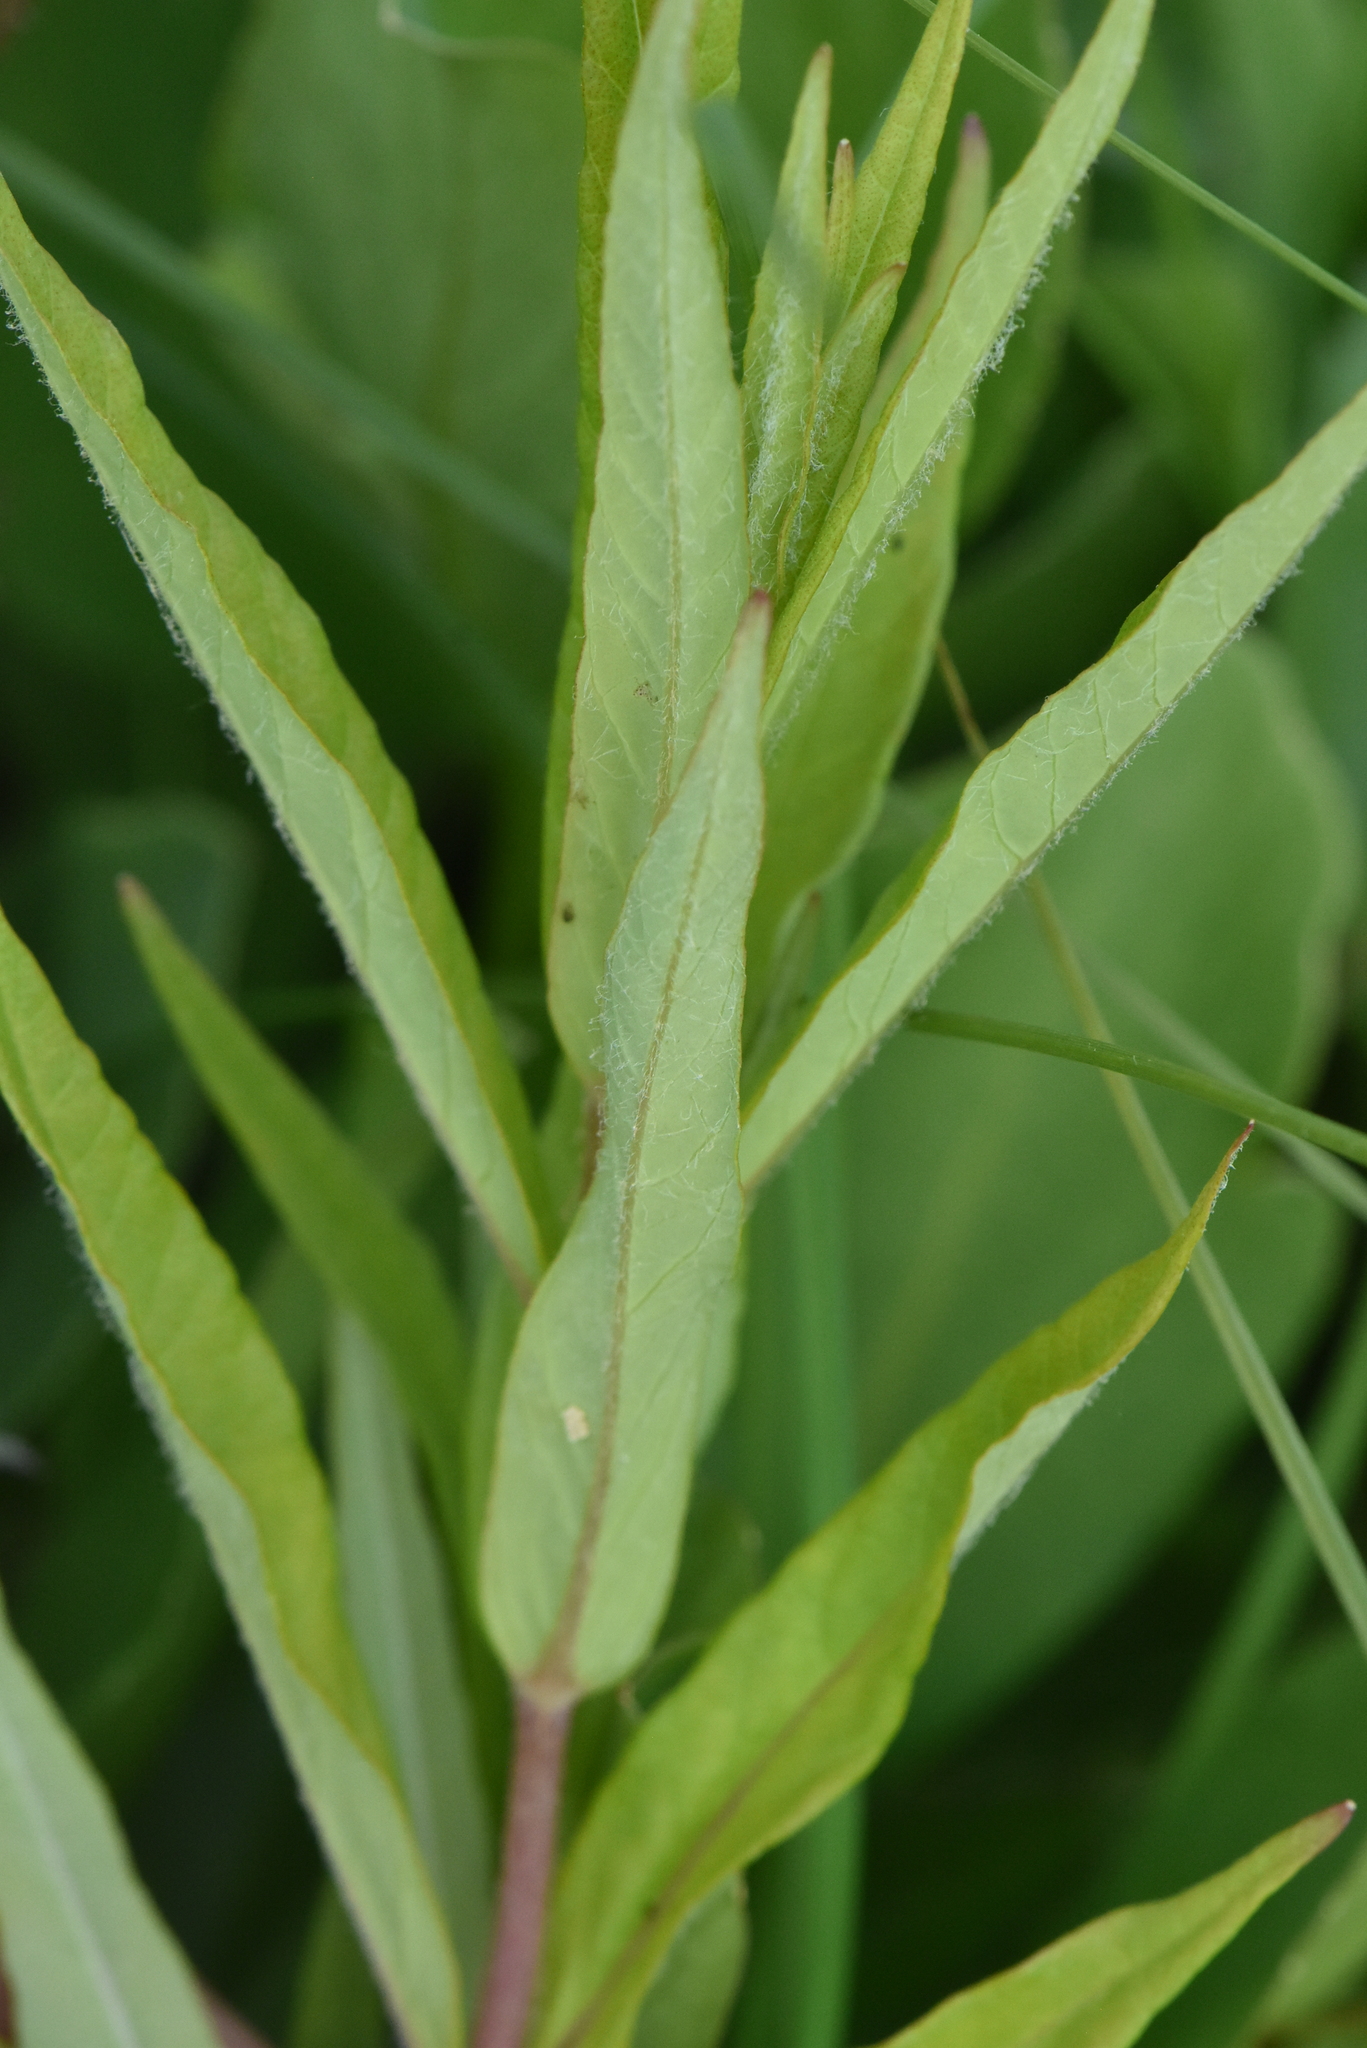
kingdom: Plantae
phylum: Tracheophyta
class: Magnoliopsida
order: Ericales
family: Primulaceae
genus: Lysimachia
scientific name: Lysimachia thyrsiflora
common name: Tufted loosestrife
